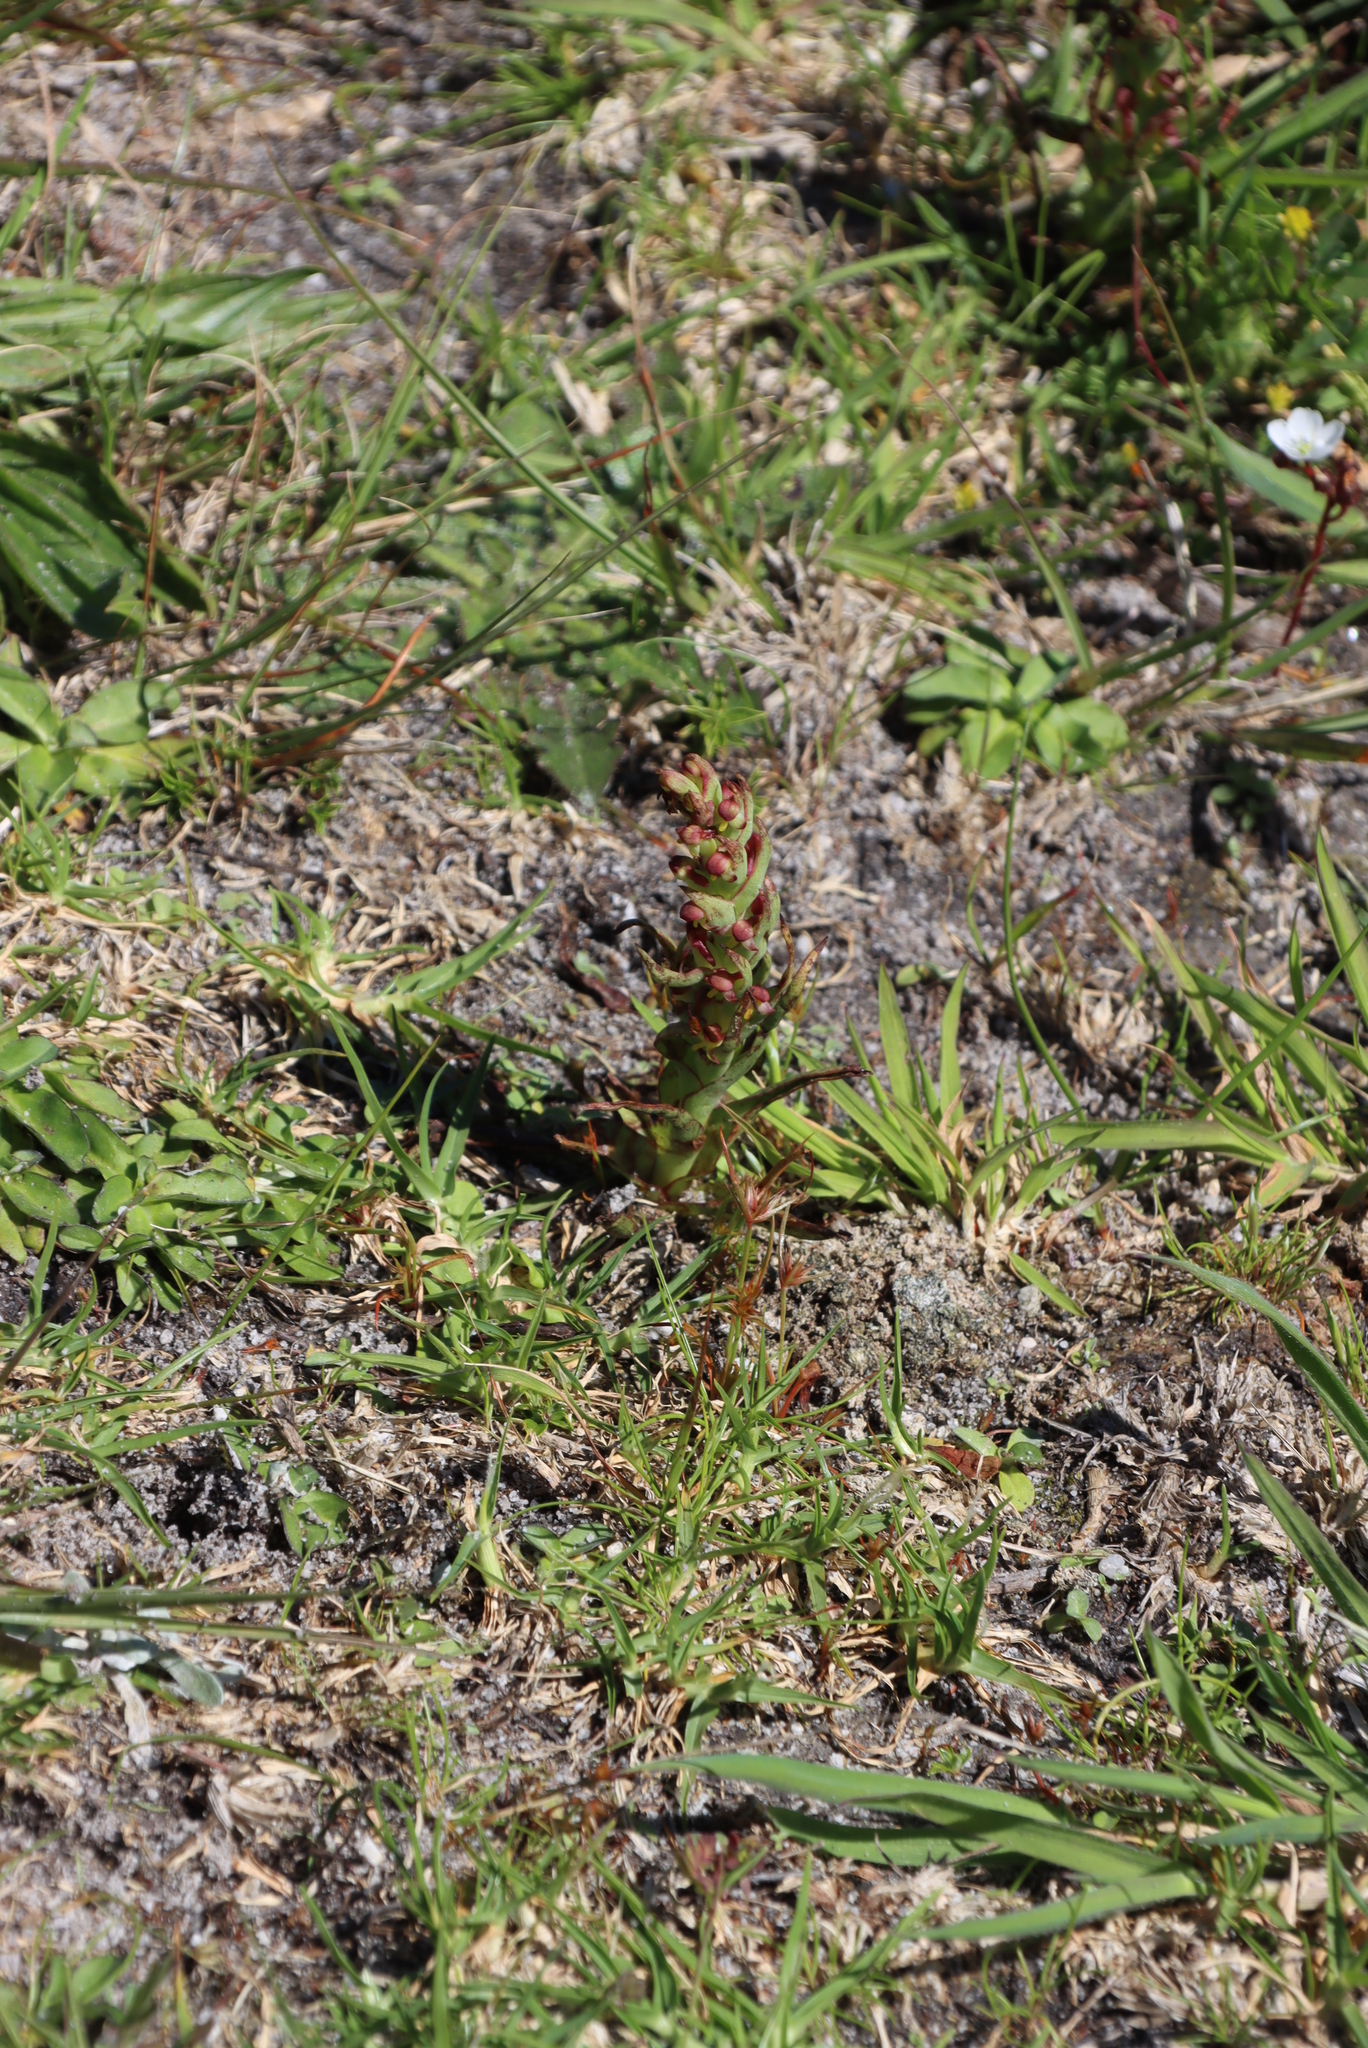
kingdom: Plantae
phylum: Tracheophyta
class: Liliopsida
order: Asparagales
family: Orchidaceae
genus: Disa
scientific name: Disa bracteata
